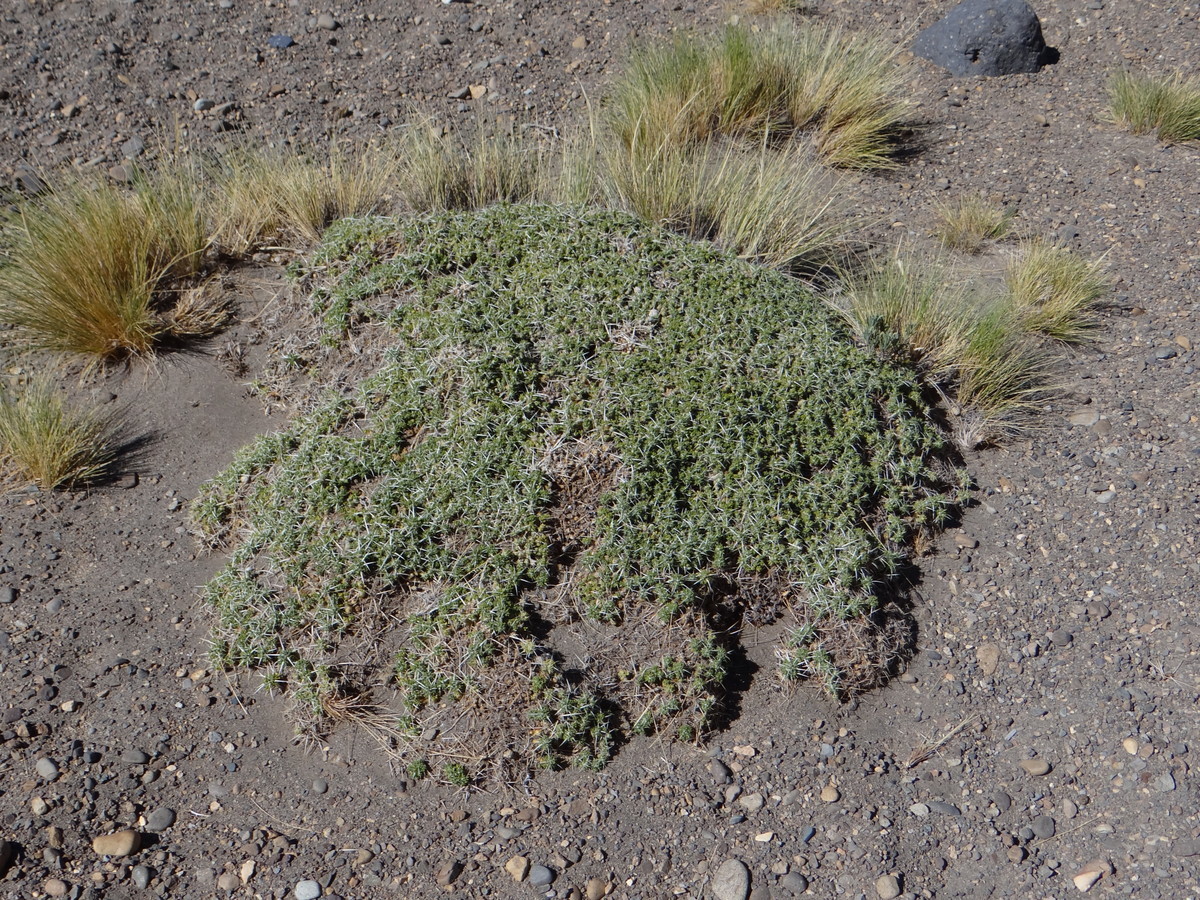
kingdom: Plantae
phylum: Tracheophyta
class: Magnoliopsida
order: Caryophyllales
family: Cactaceae
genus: Maihuenia
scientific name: Maihuenia patagonica
